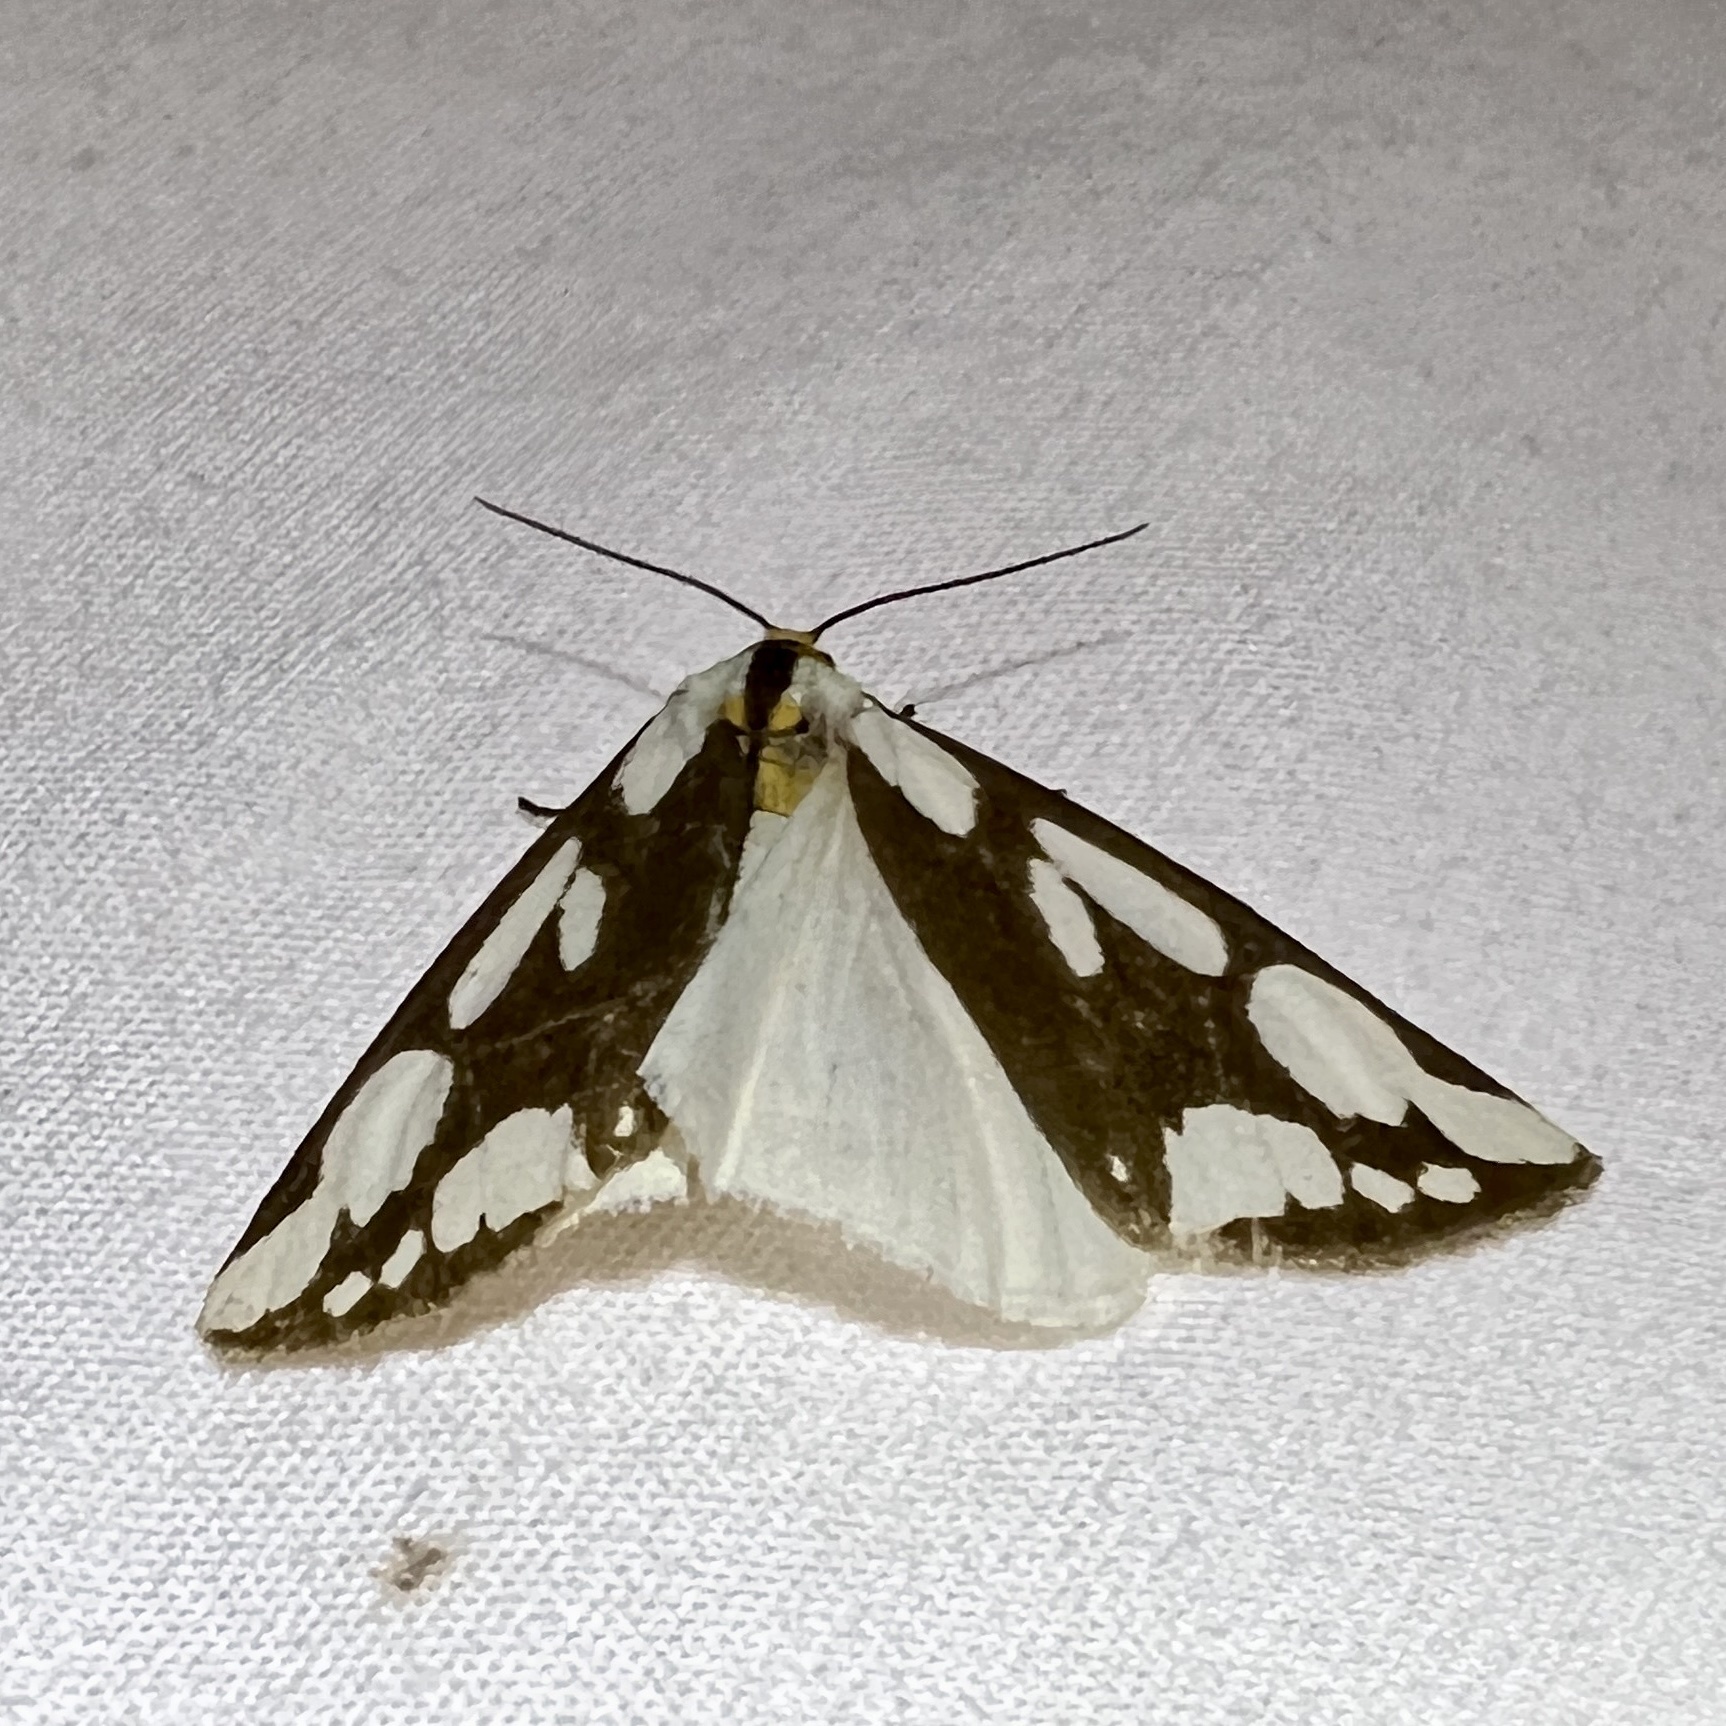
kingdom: Animalia
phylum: Arthropoda
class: Insecta
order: Lepidoptera
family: Erebidae
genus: Haploa
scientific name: Haploa confusa
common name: Confused haploa moth
